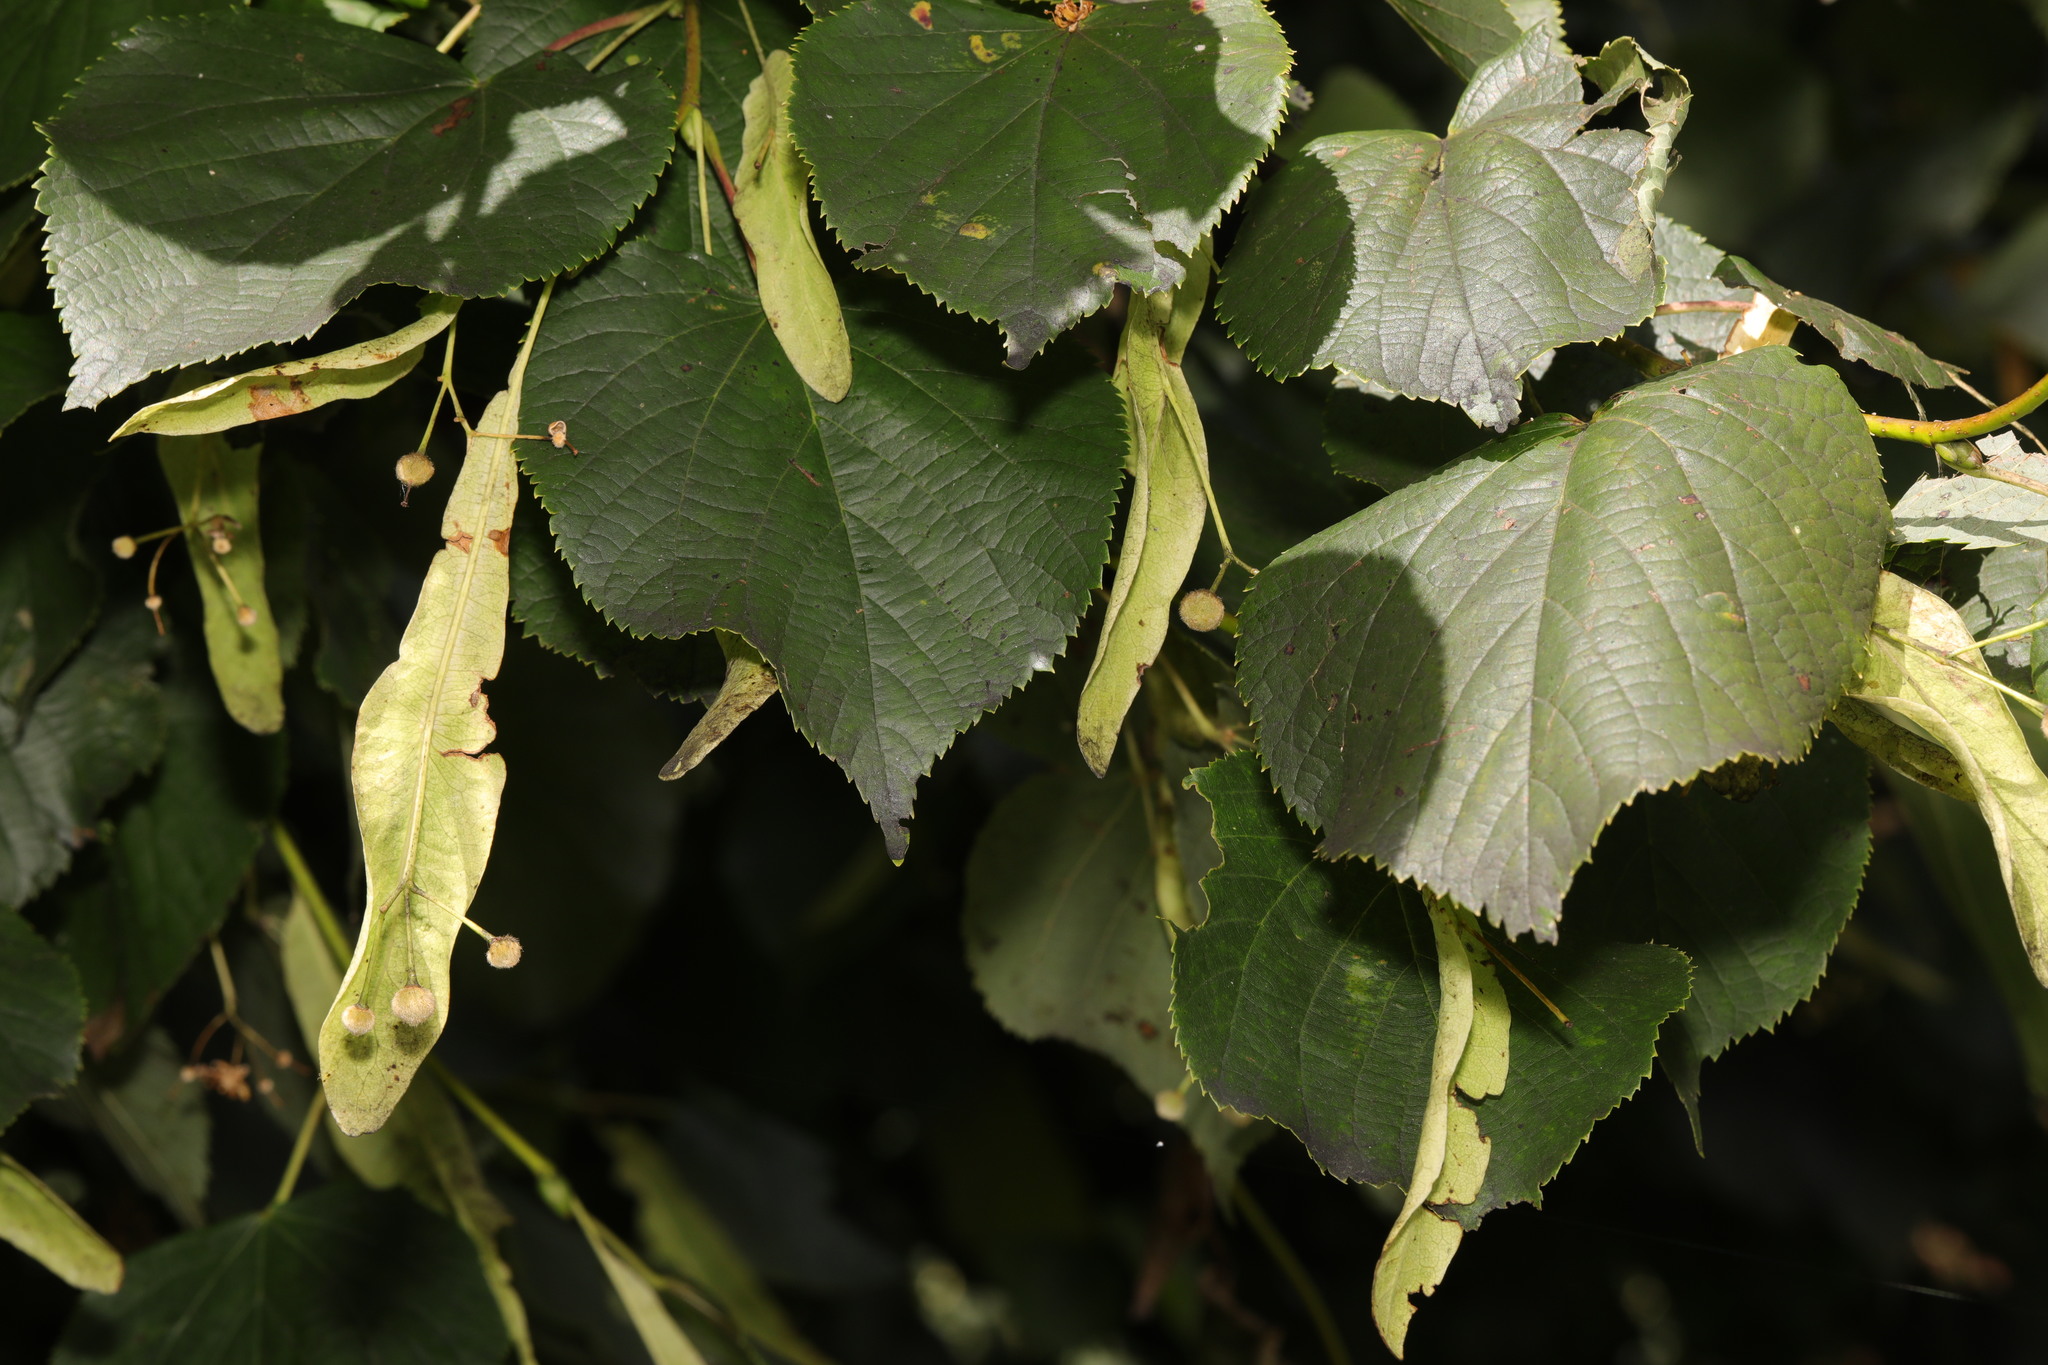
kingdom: Plantae
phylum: Tracheophyta
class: Magnoliopsida
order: Malvales
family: Malvaceae
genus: Tilia
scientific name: Tilia europaea
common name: European linden
